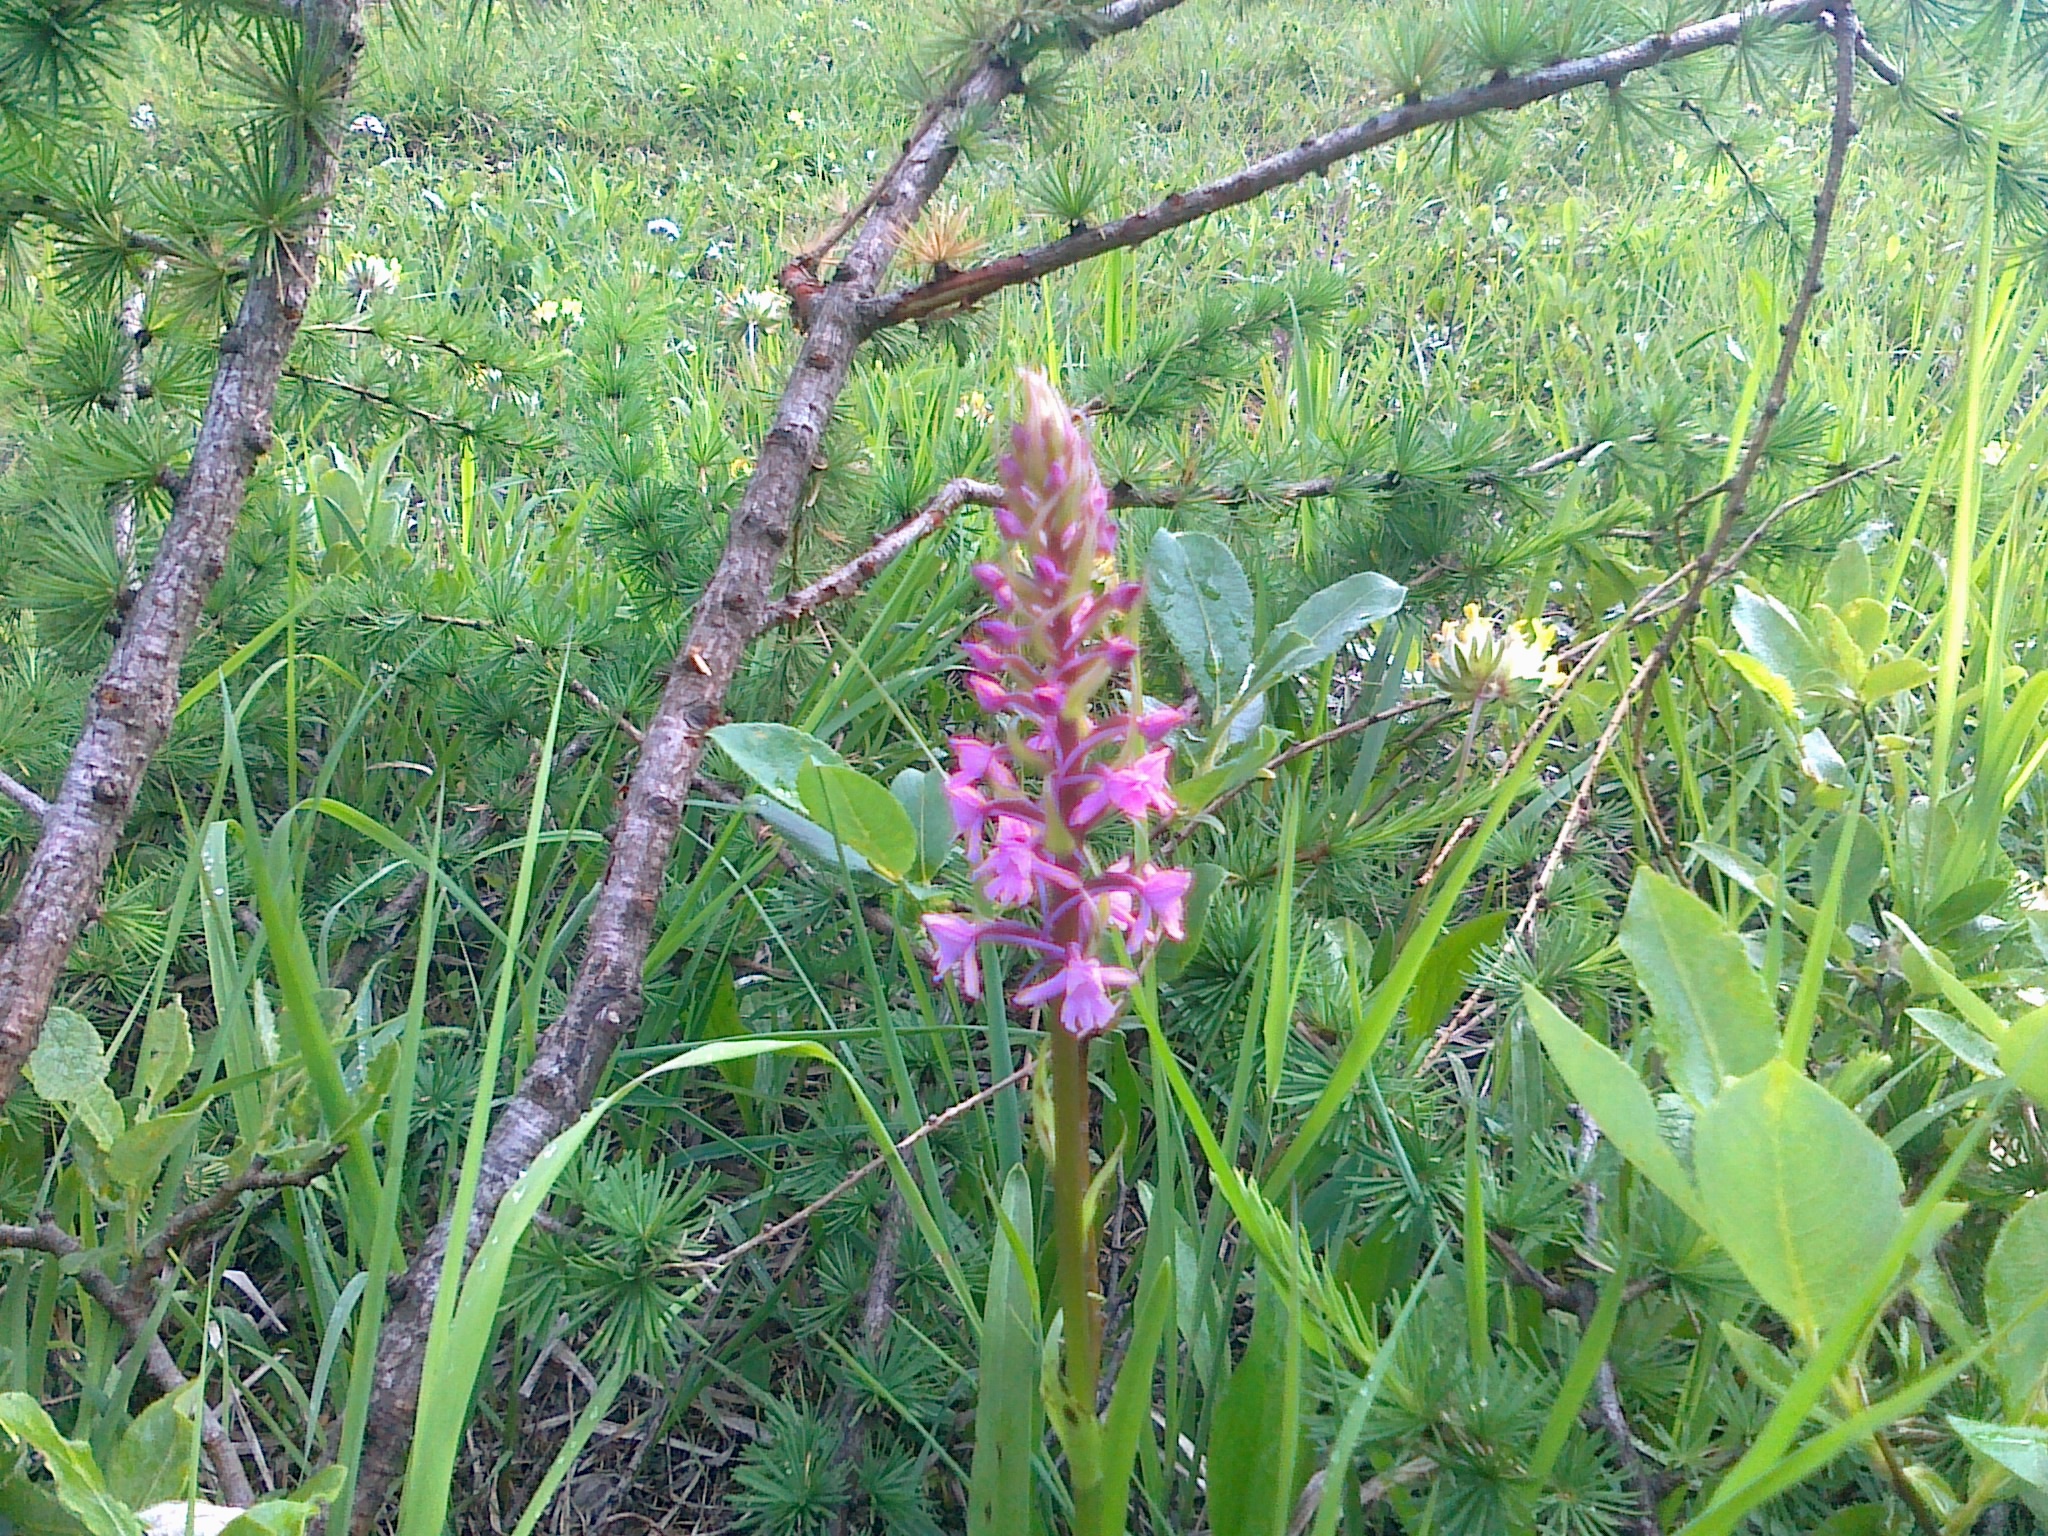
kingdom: Plantae
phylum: Tracheophyta
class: Liliopsida
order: Asparagales
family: Orchidaceae
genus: Gymnadenia
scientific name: Gymnadenia conopsea
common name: Fragrant orchid
